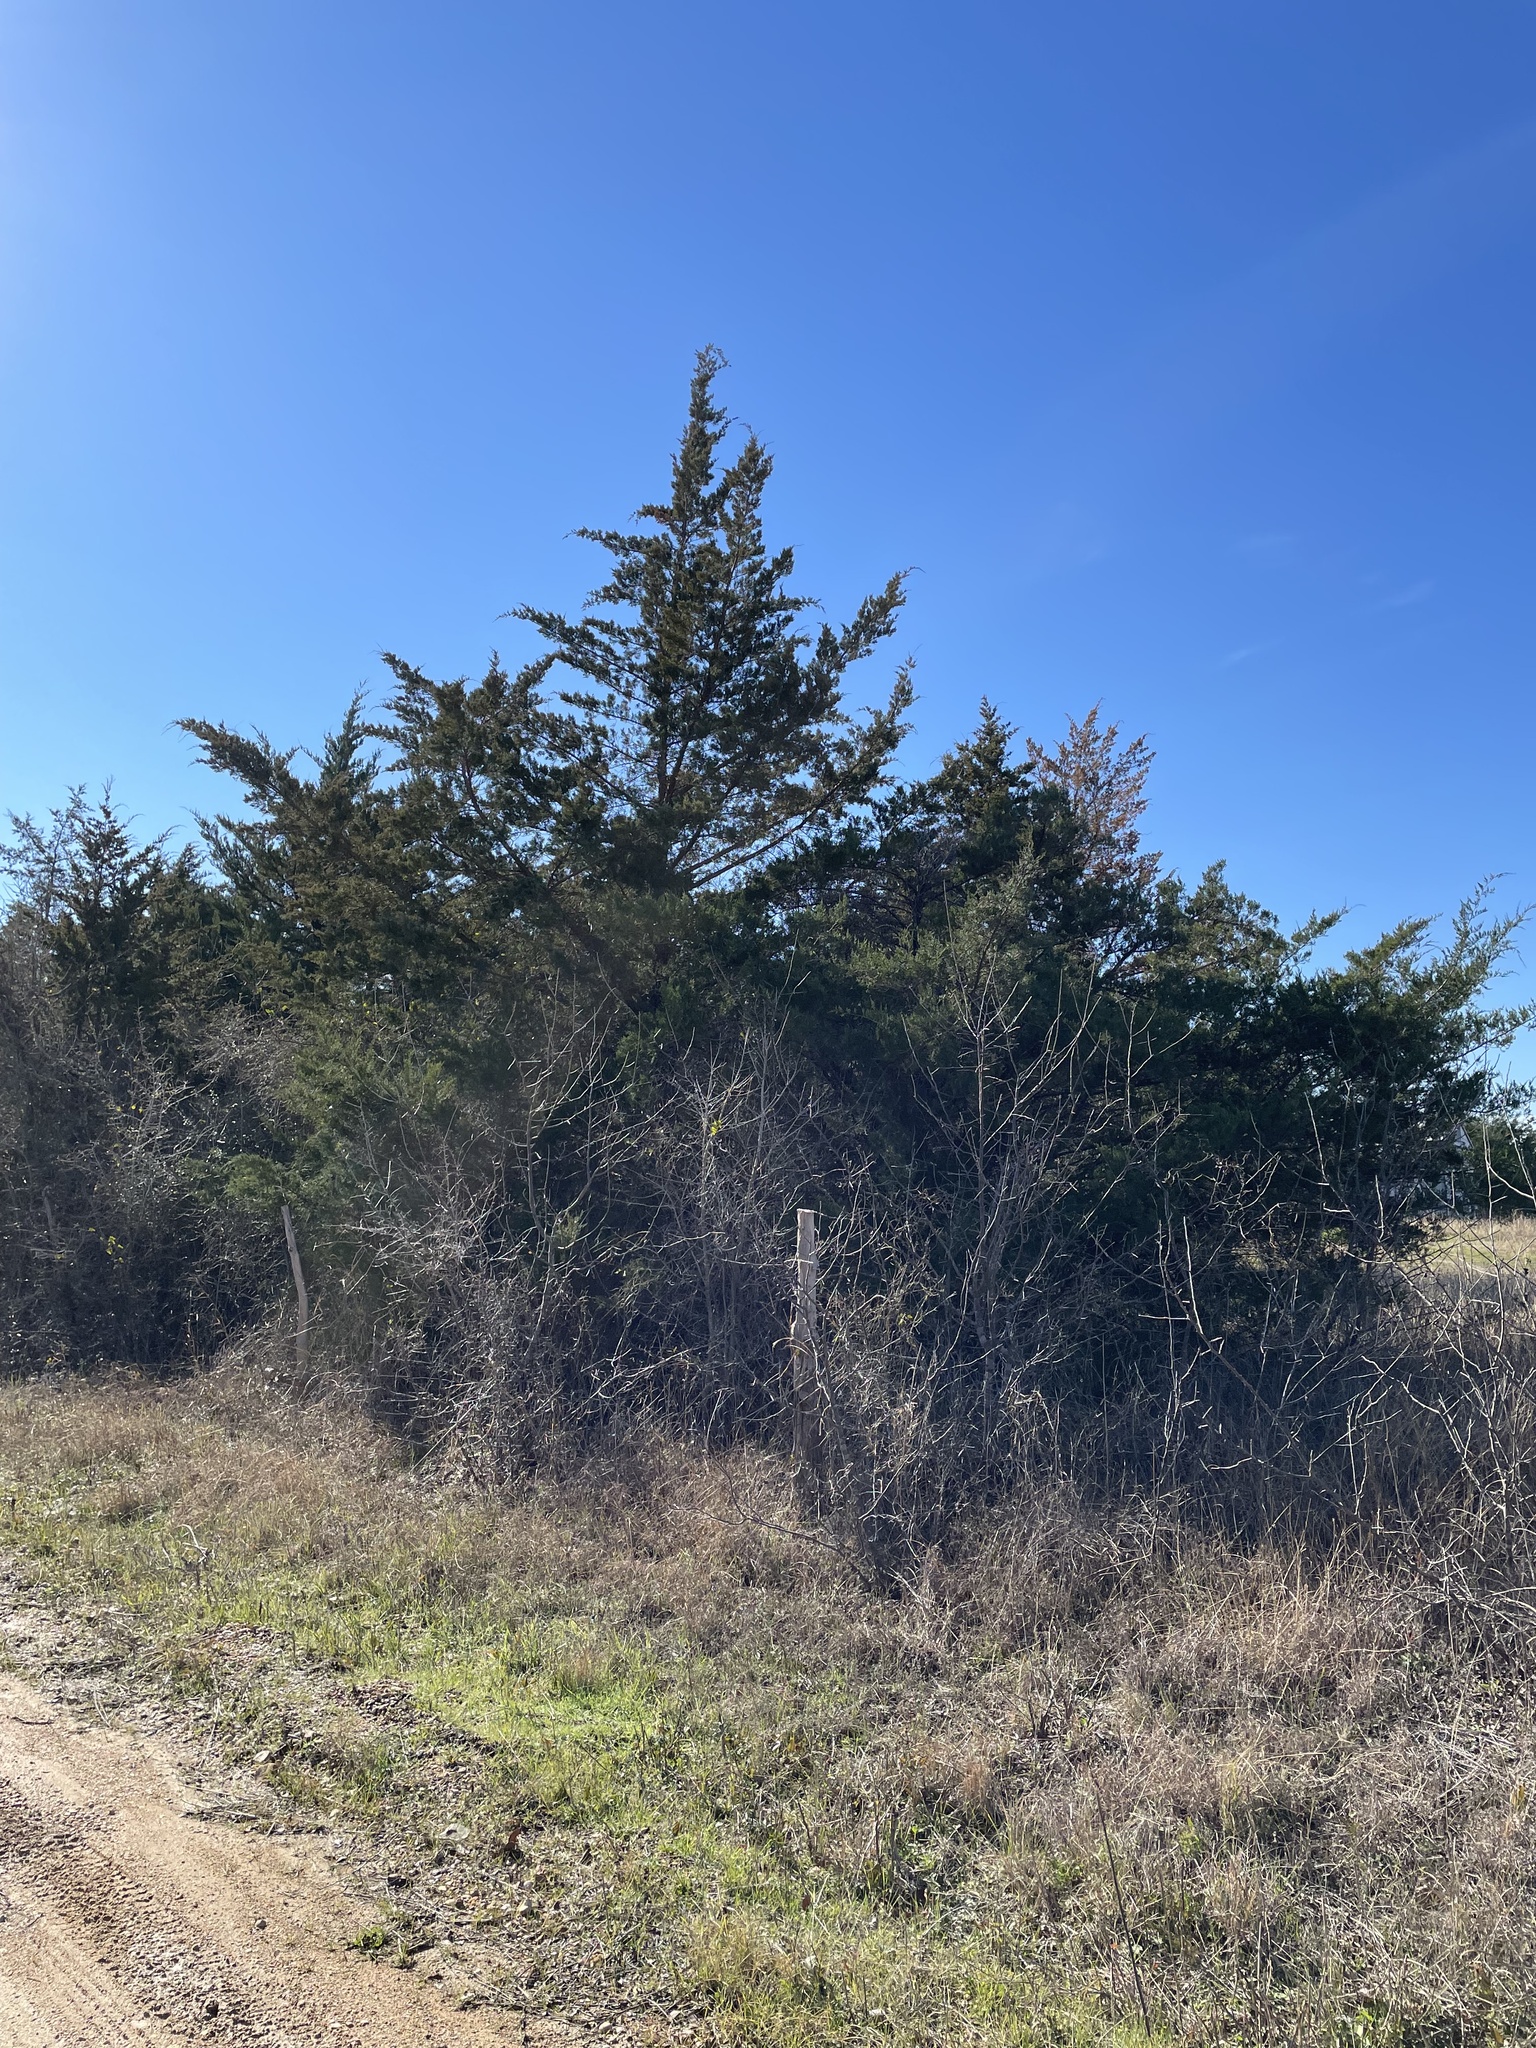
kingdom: Plantae
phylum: Tracheophyta
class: Pinopsida
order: Pinales
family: Cupressaceae
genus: Juniperus
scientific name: Juniperus virginiana
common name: Red juniper
